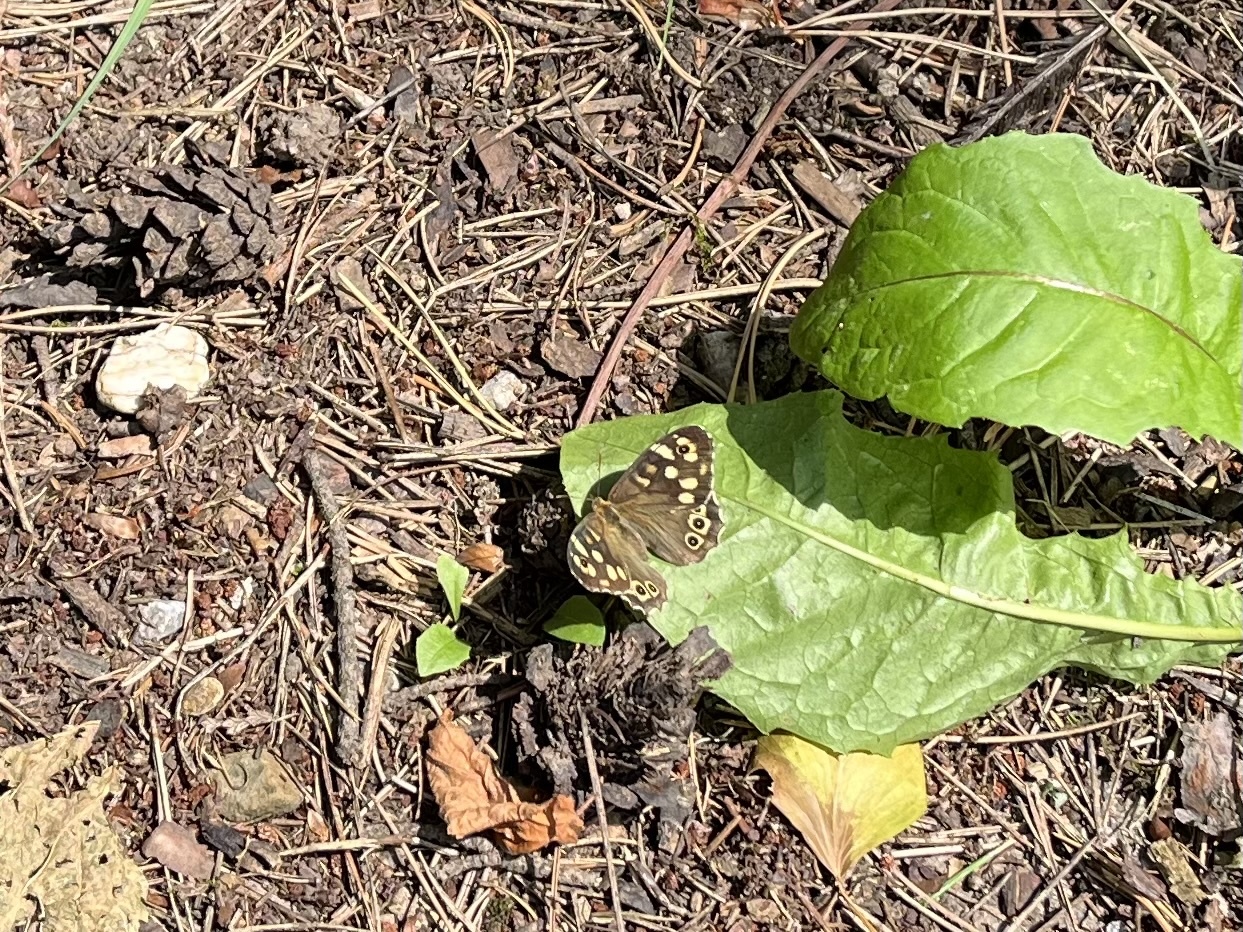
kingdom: Animalia
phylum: Arthropoda
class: Insecta
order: Lepidoptera
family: Nymphalidae
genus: Pararge
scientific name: Pararge aegeria
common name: Speckled wood
